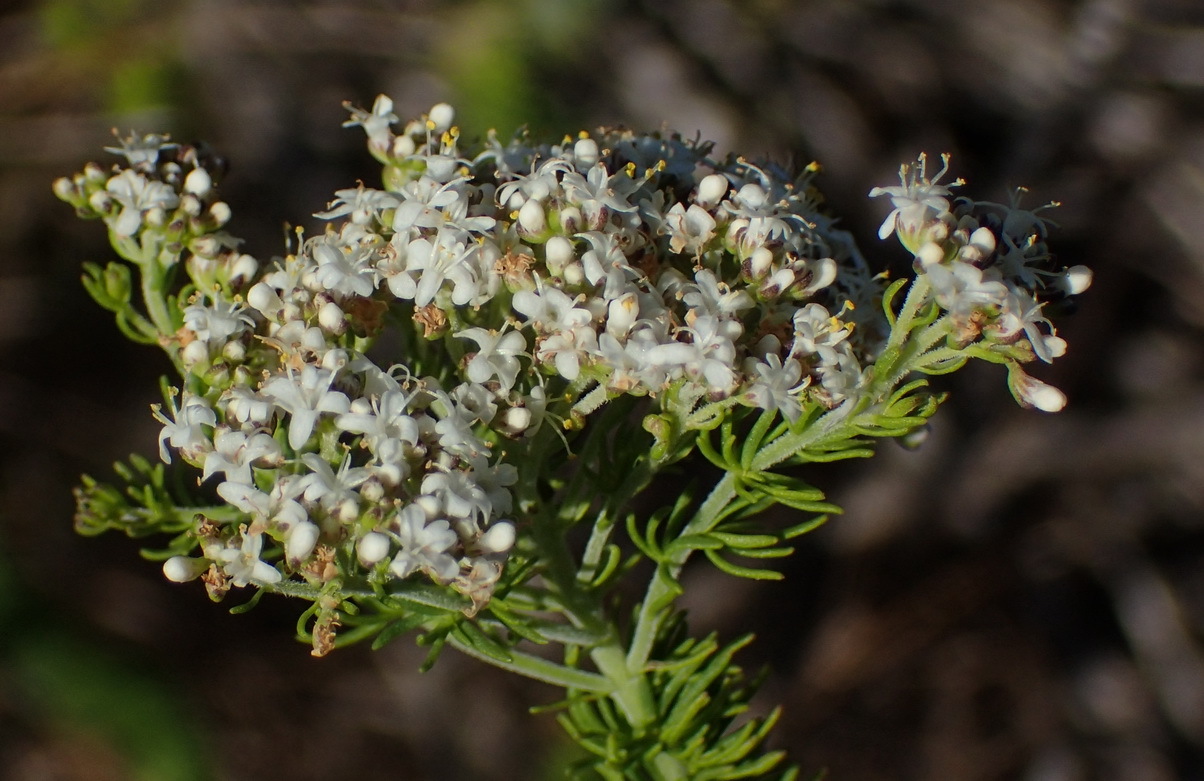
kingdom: Plantae
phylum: Tracheophyta
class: Magnoliopsida
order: Lamiales
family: Scrophulariaceae
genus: Selago
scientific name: Selago corymbosa
